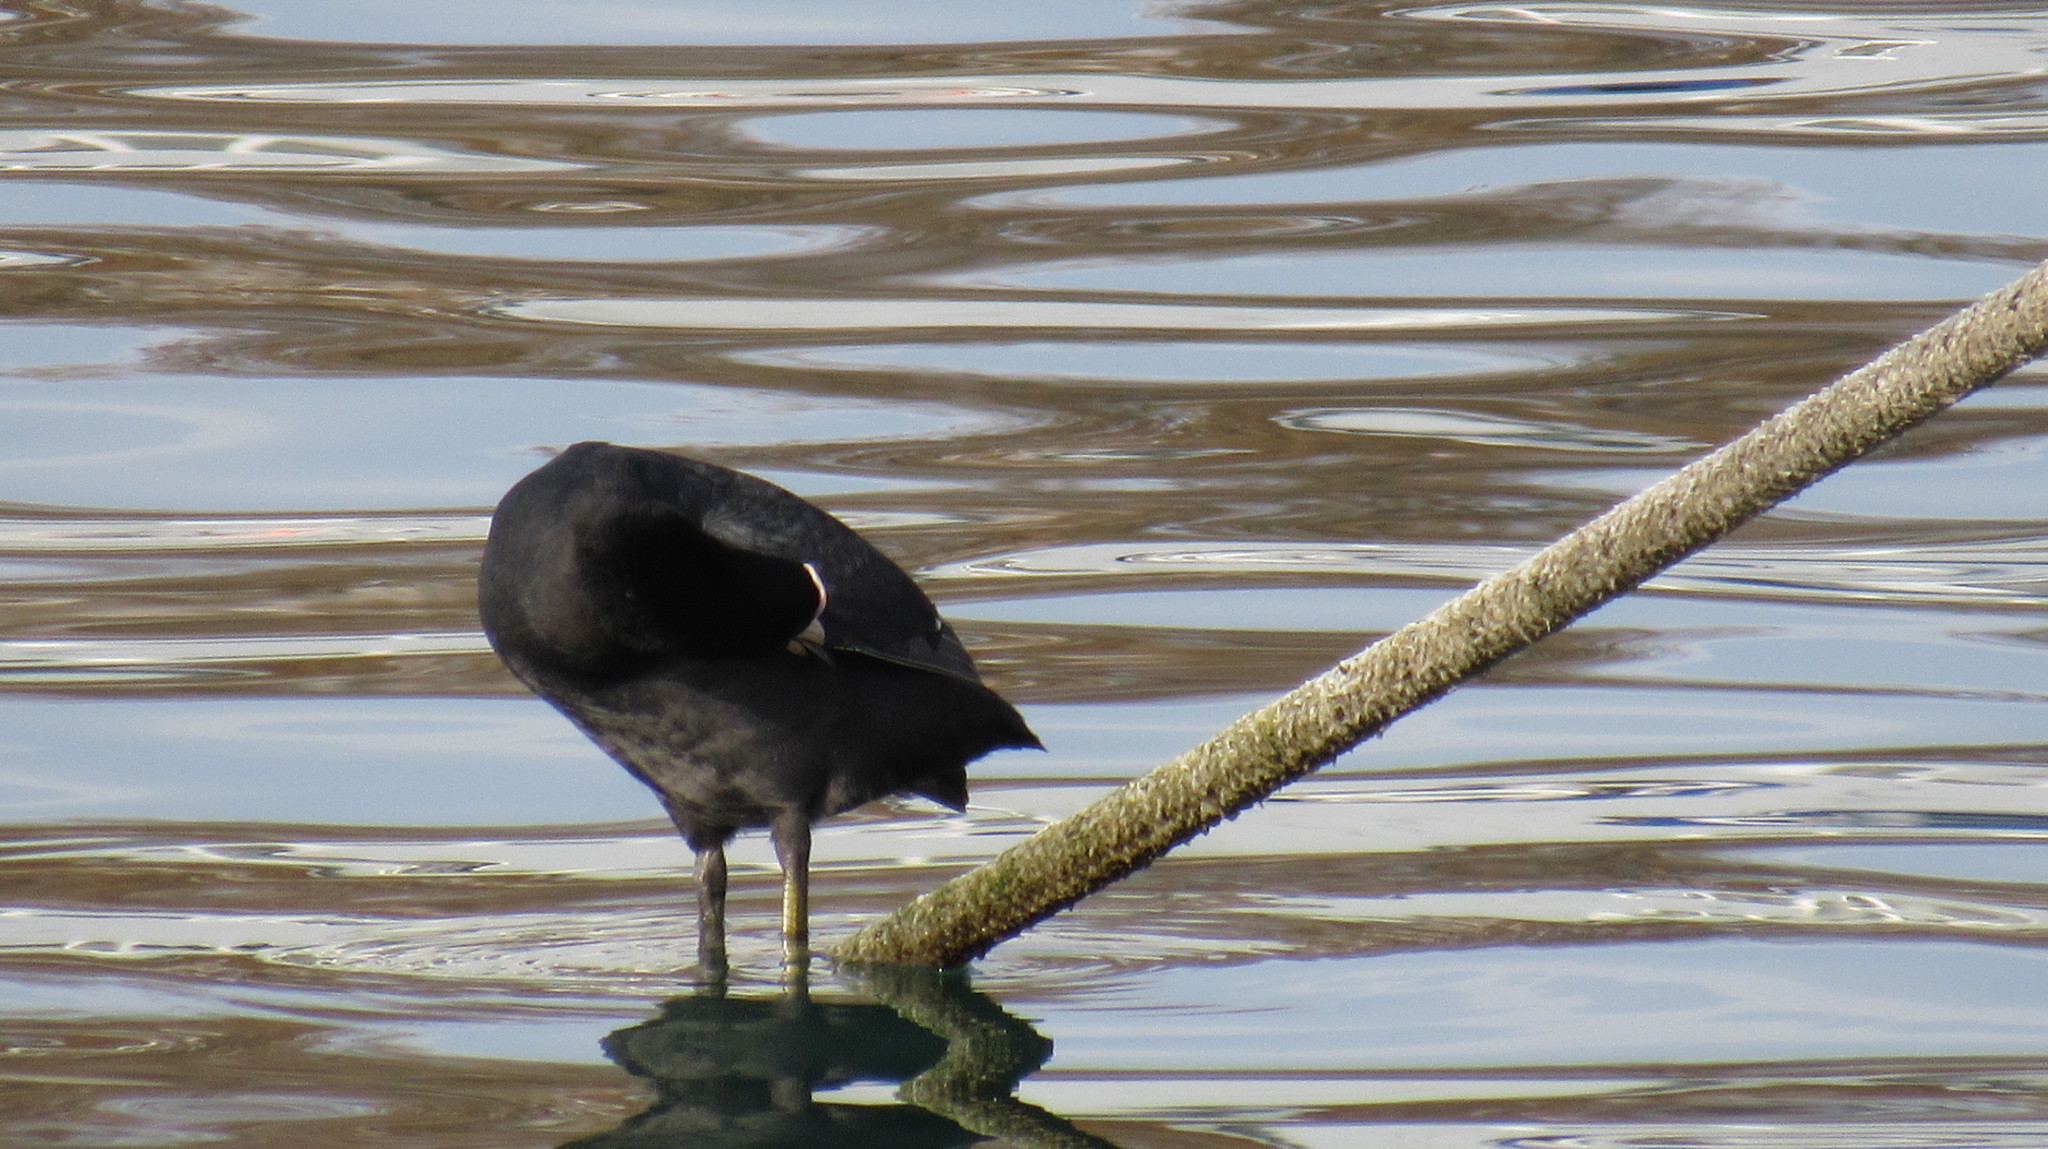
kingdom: Animalia
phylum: Chordata
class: Aves
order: Gruiformes
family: Rallidae
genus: Fulica
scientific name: Fulica atra
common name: Eurasian coot
